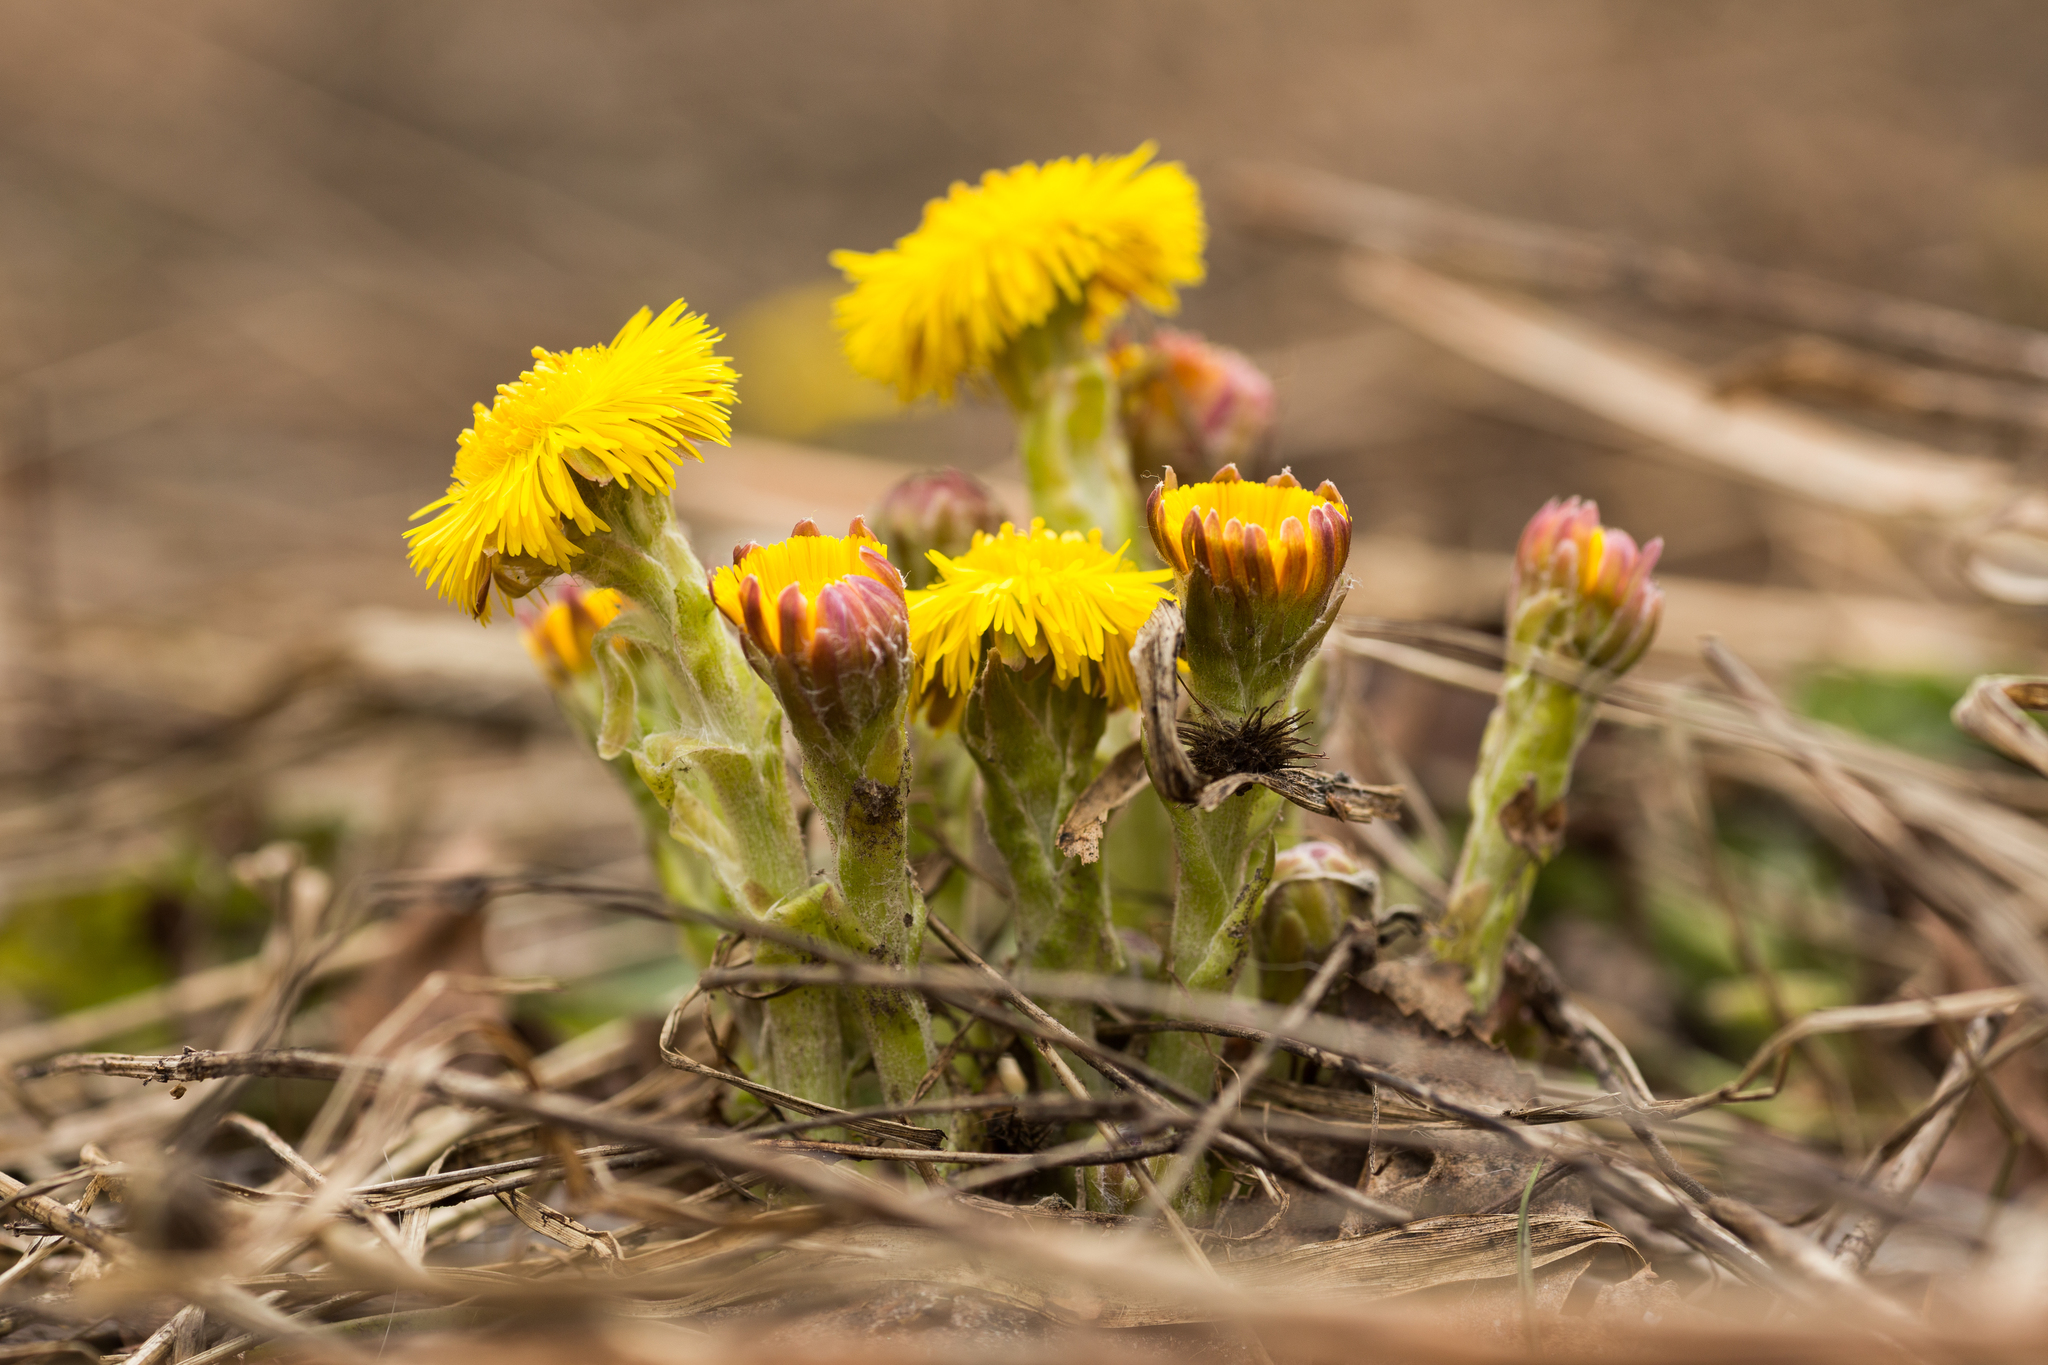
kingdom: Plantae
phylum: Tracheophyta
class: Magnoliopsida
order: Asterales
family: Asteraceae
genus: Tussilago
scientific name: Tussilago farfara
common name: Coltsfoot
